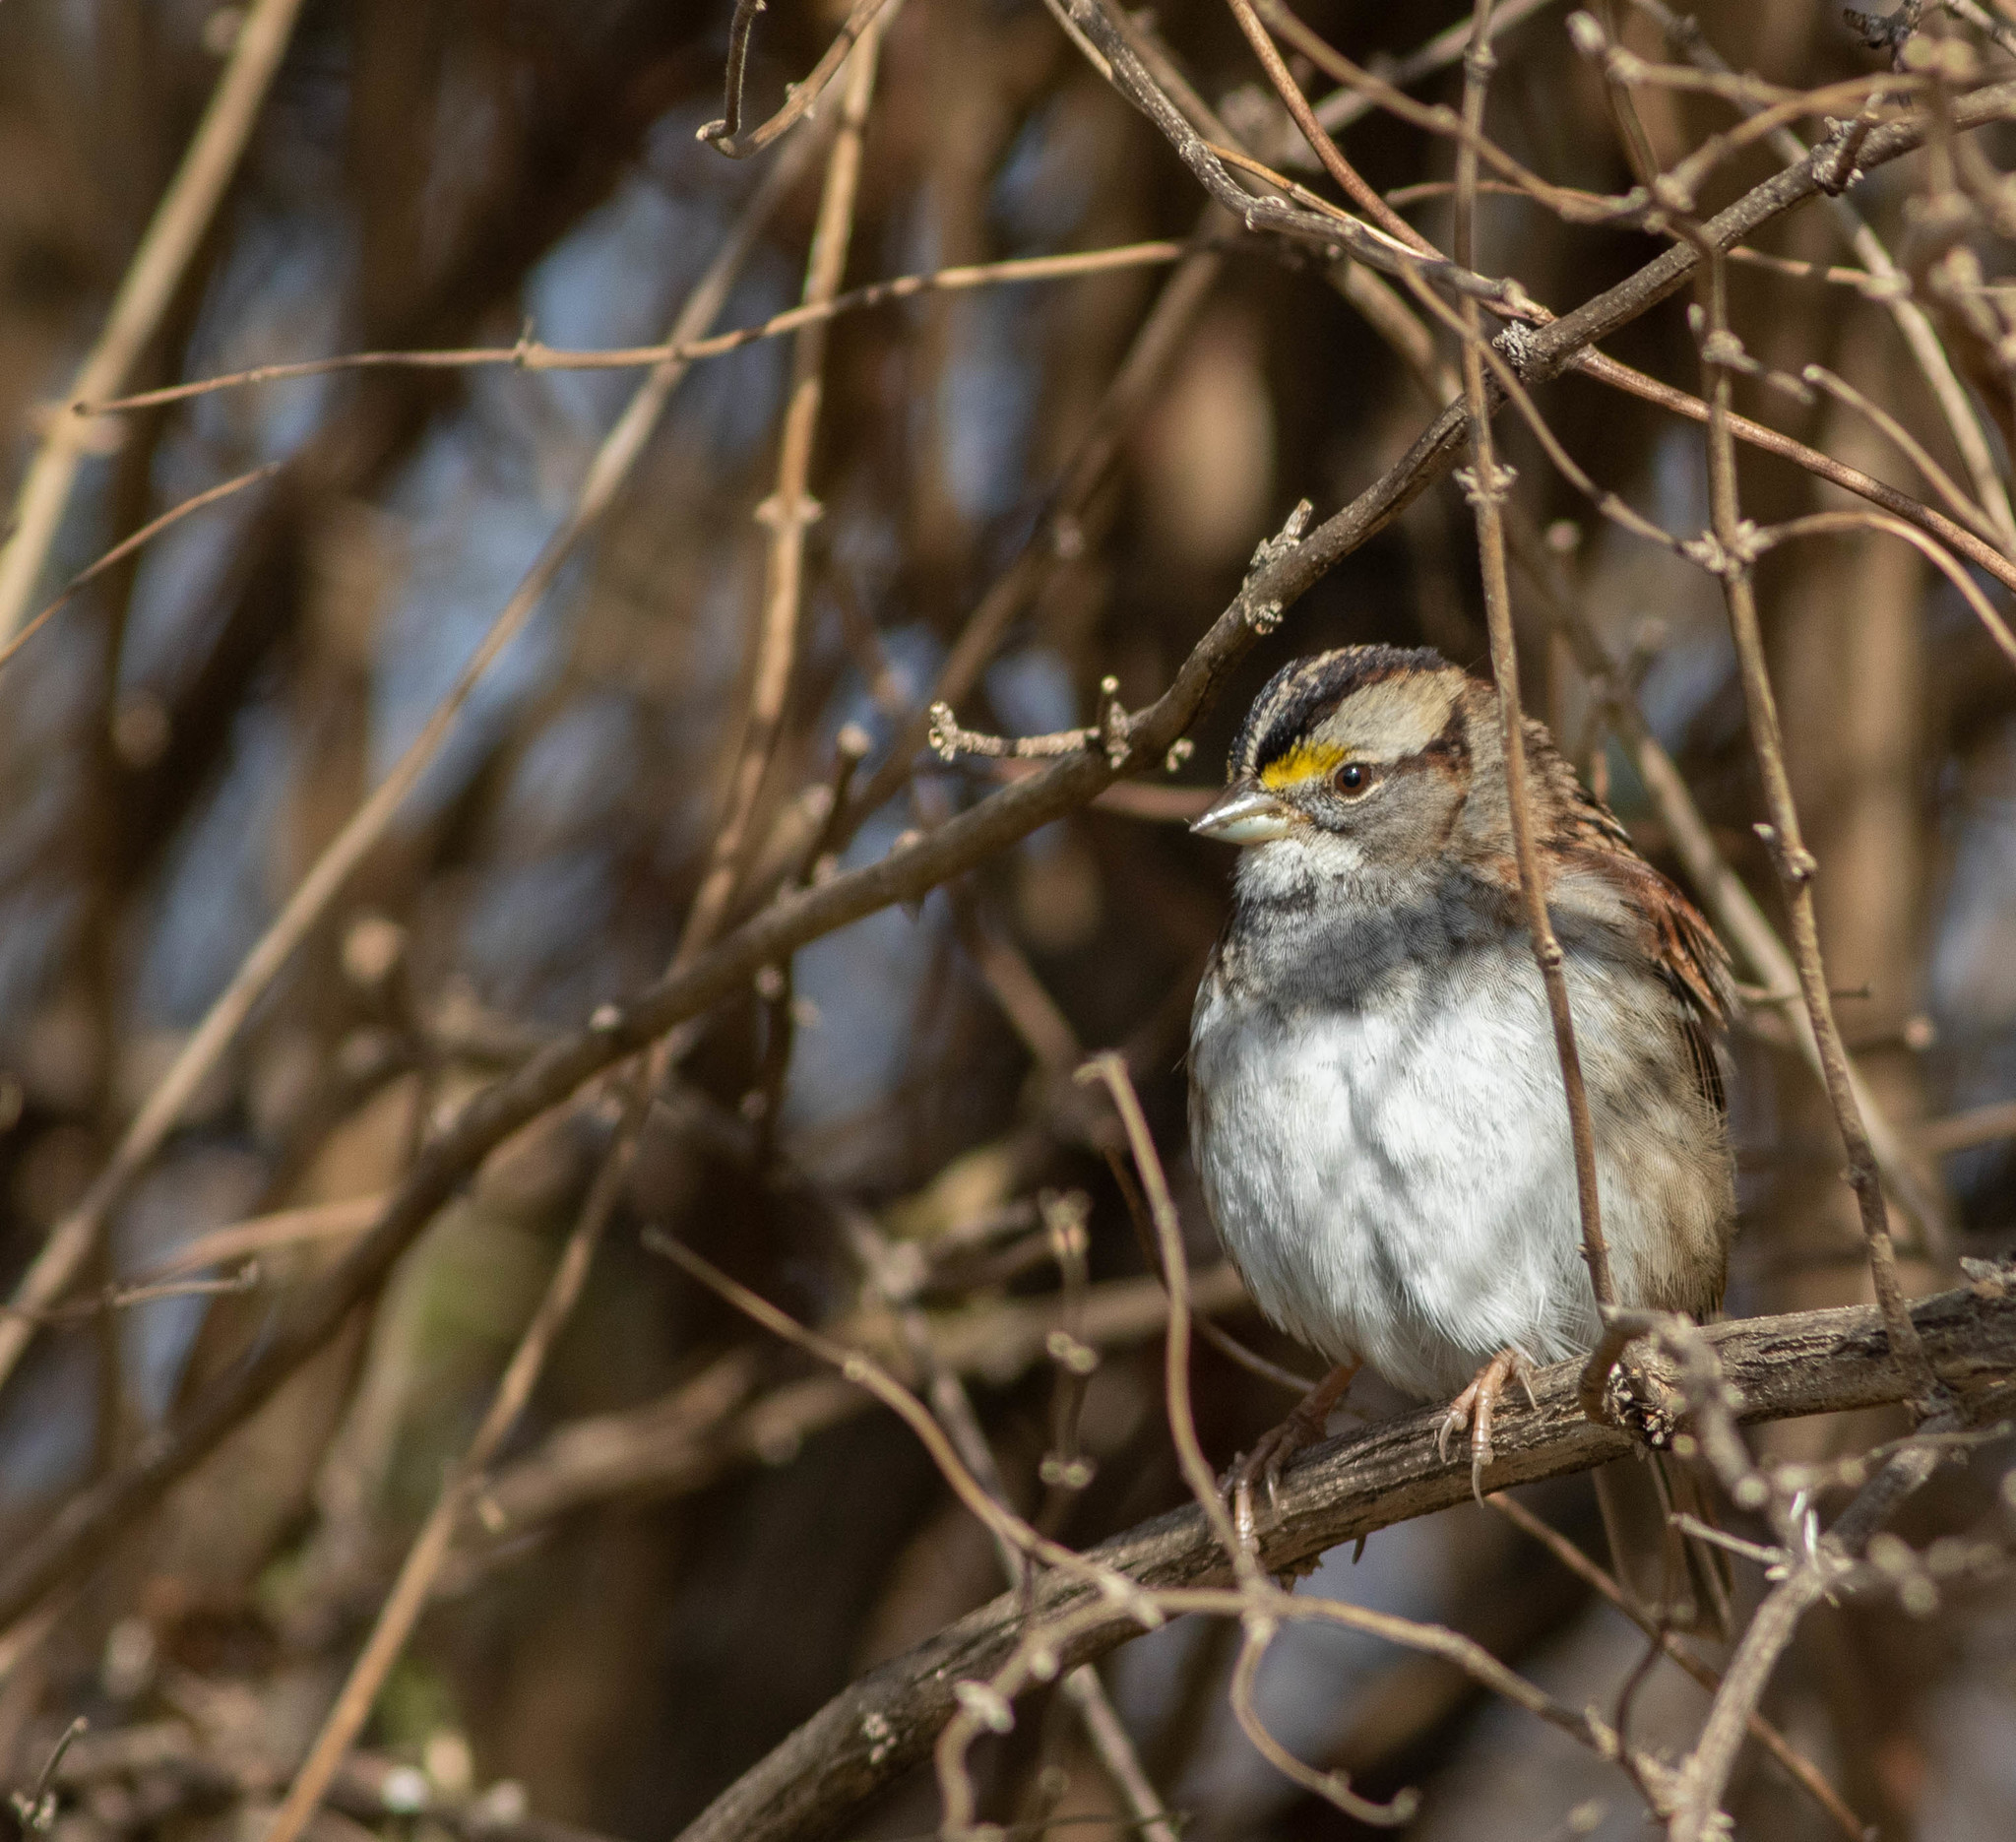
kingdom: Animalia
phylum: Chordata
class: Aves
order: Passeriformes
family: Passerellidae
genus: Zonotrichia
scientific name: Zonotrichia albicollis
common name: White-throated sparrow
